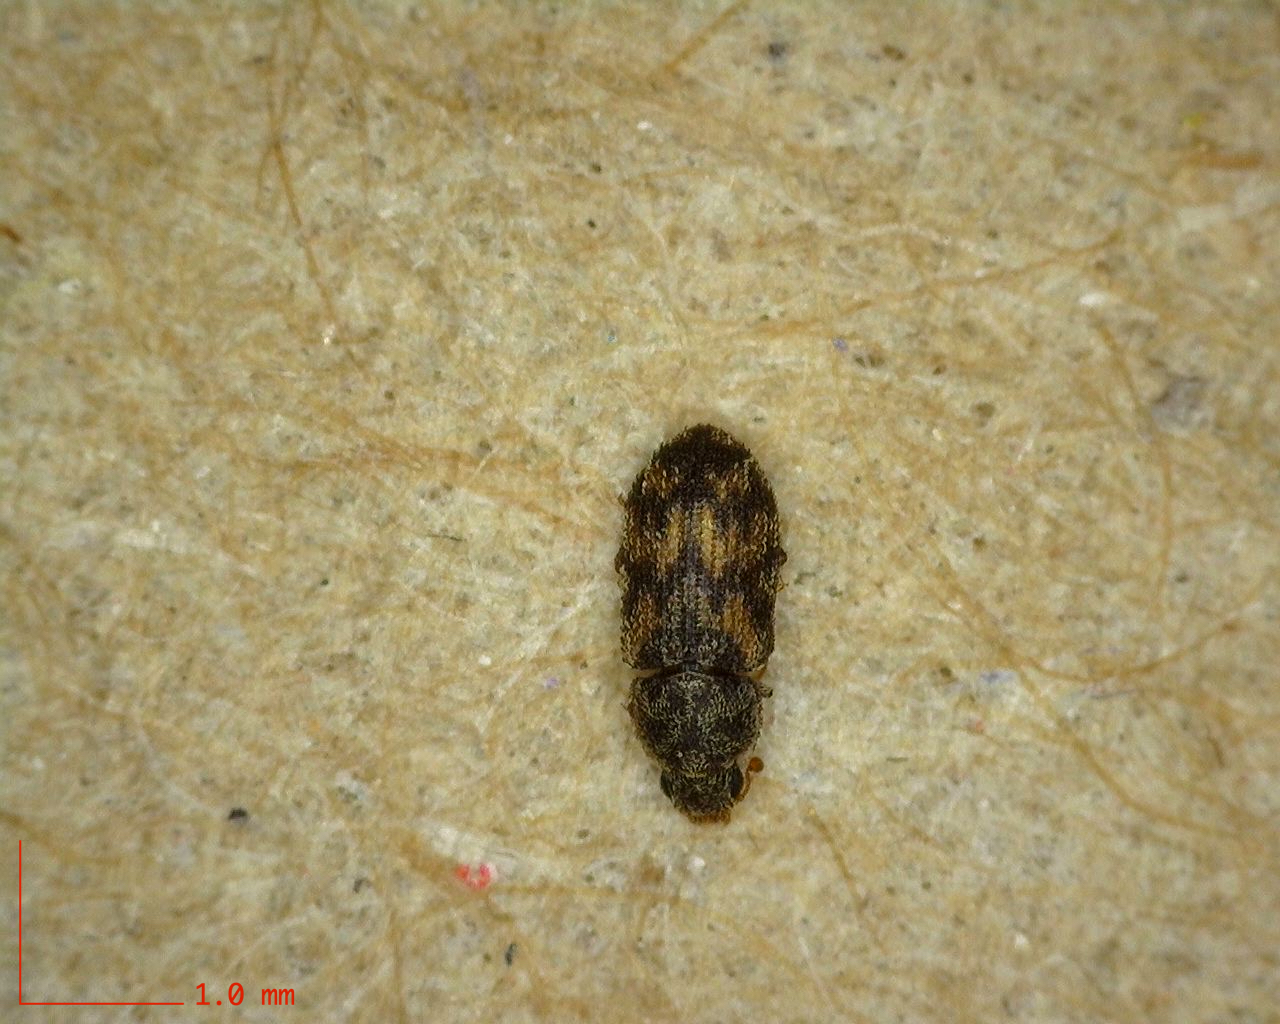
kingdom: Animalia
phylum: Arthropoda
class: Insecta
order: Coleoptera
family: Zopheridae
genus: Synchita
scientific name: Synchita
